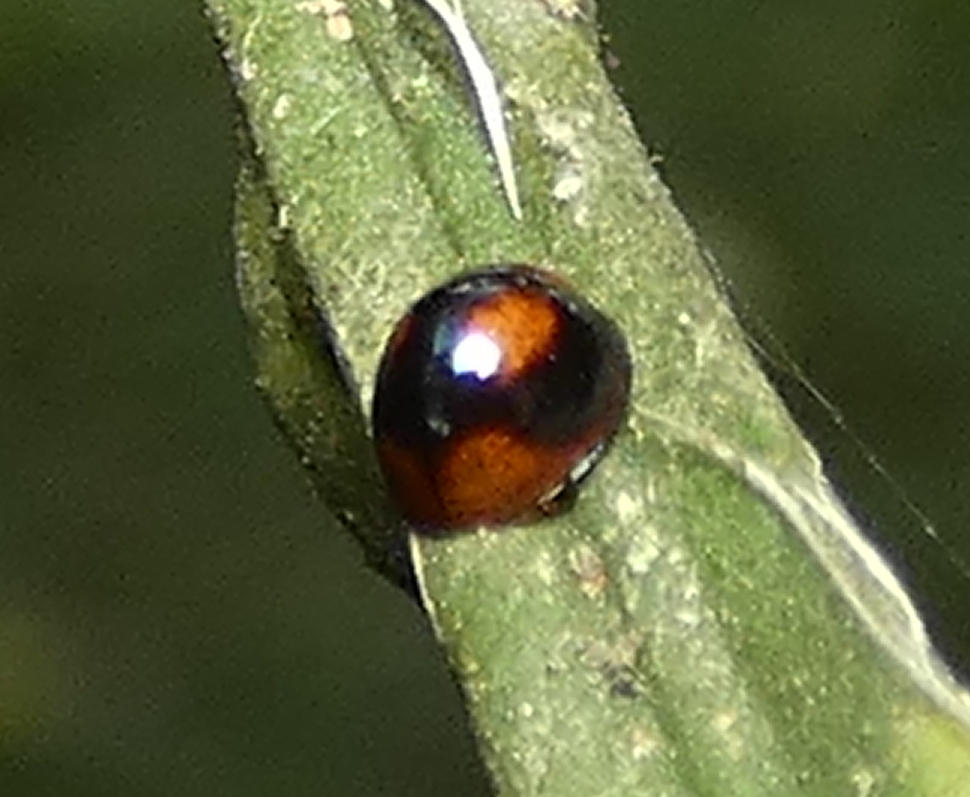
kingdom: Animalia
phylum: Arthropoda
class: Insecta
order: Coleoptera
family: Coccinellidae
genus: Cryptognatha
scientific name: Cryptognatha
